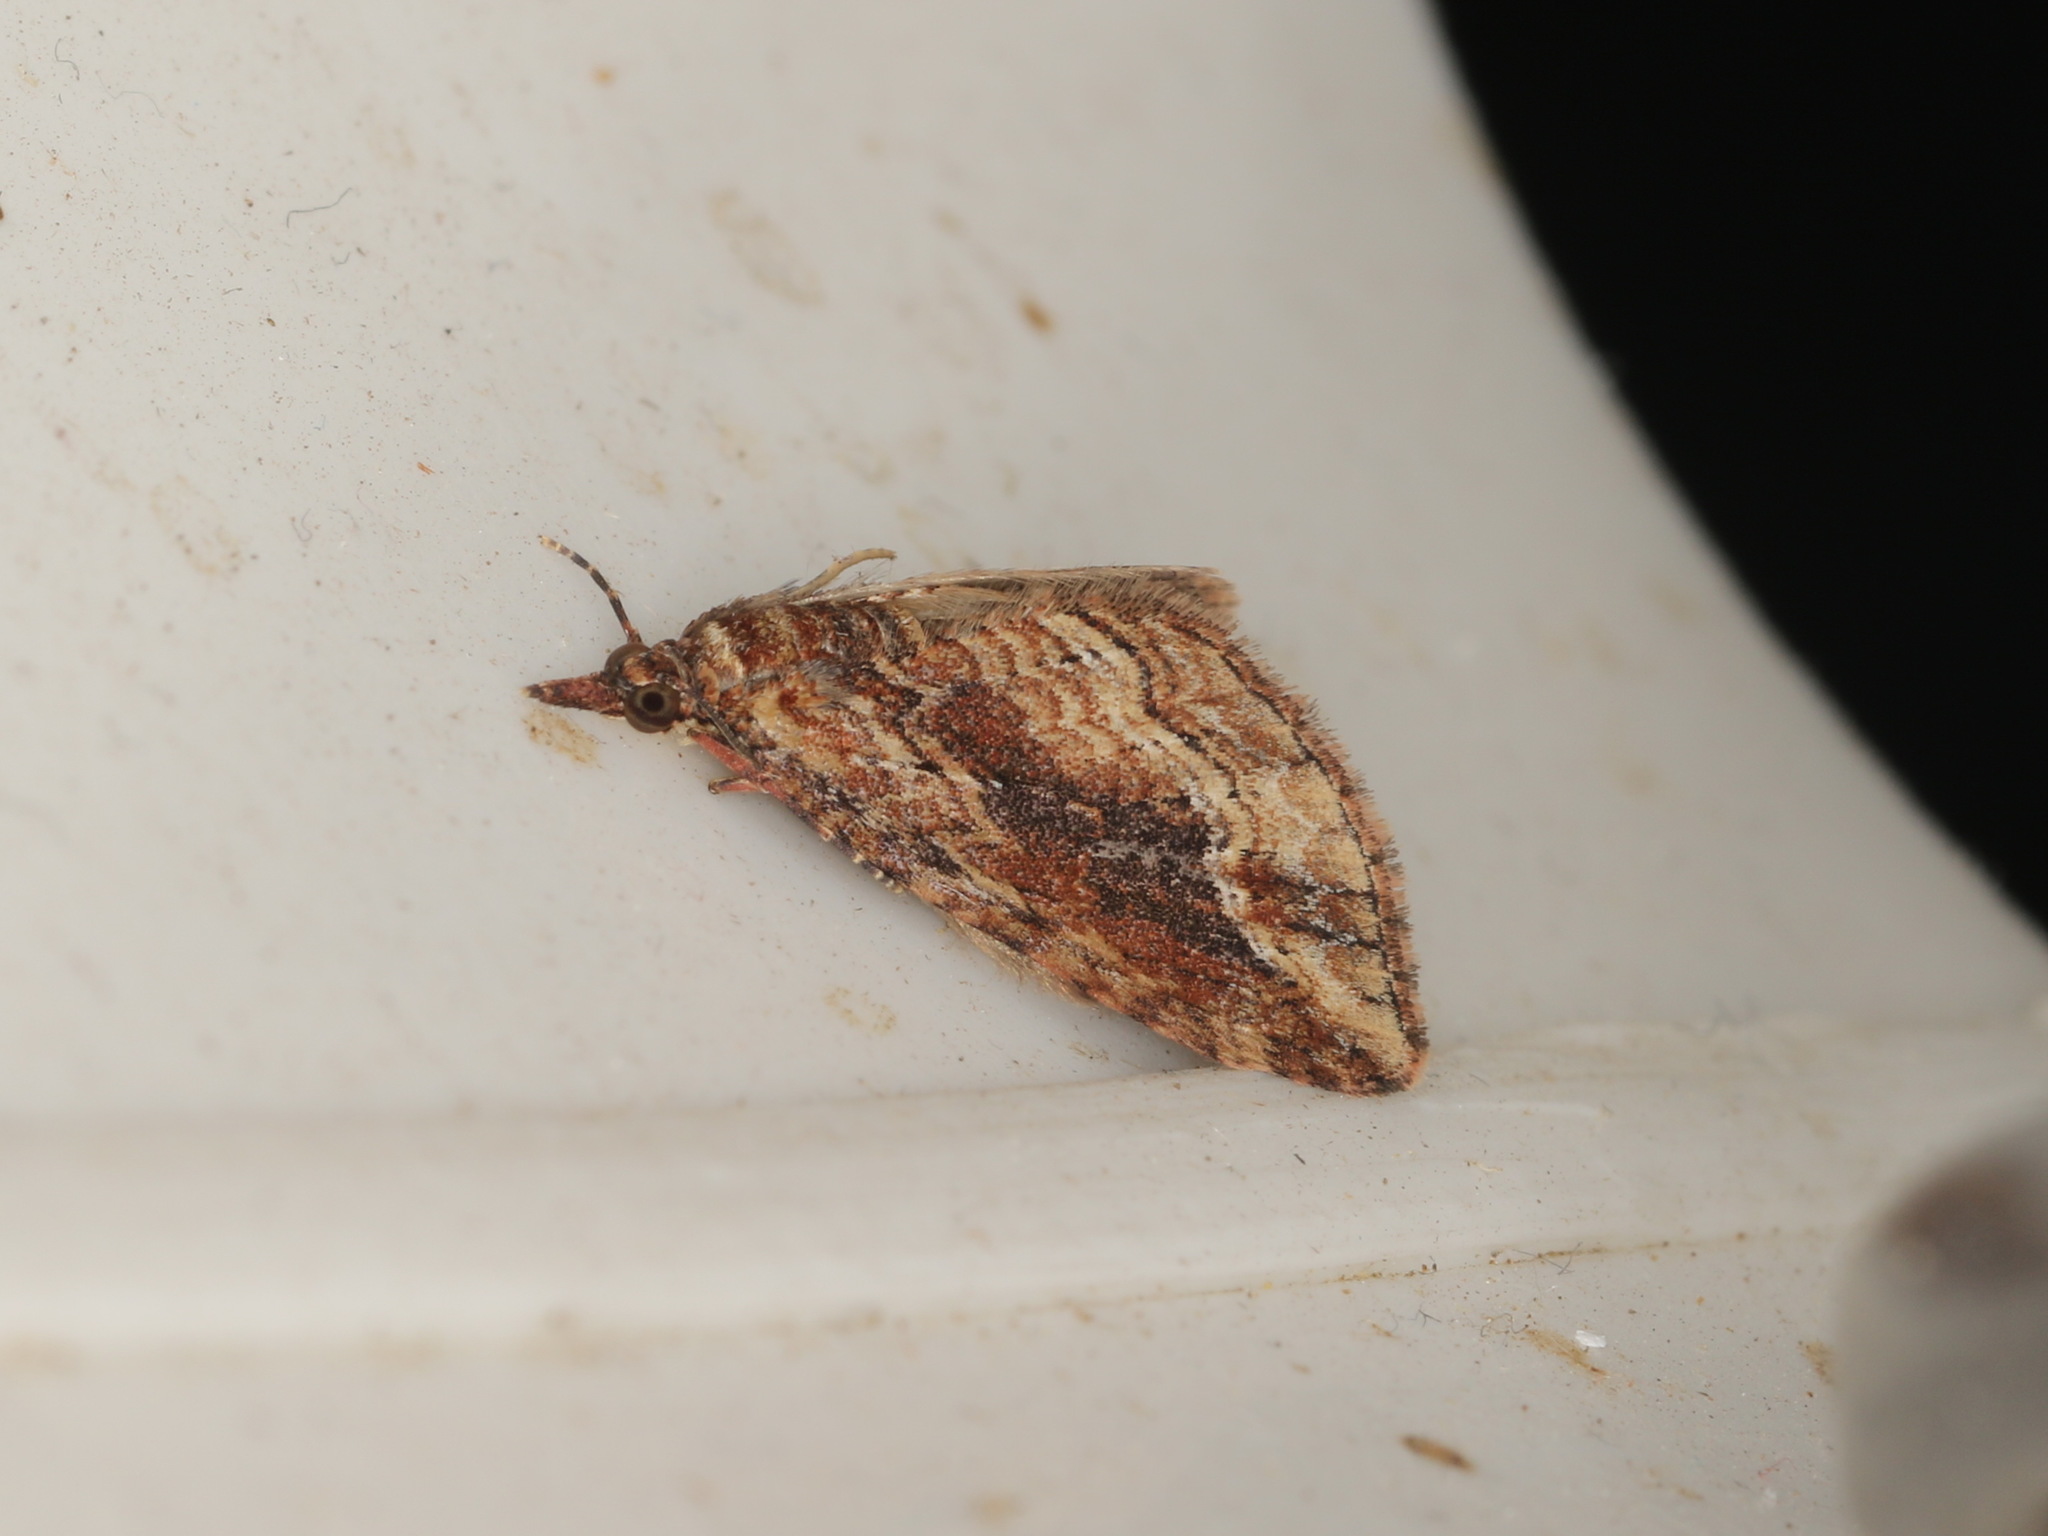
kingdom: Animalia
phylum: Arthropoda
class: Insecta
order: Lepidoptera
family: Geometridae
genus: Chloroclystis
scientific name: Chloroclystis filata
